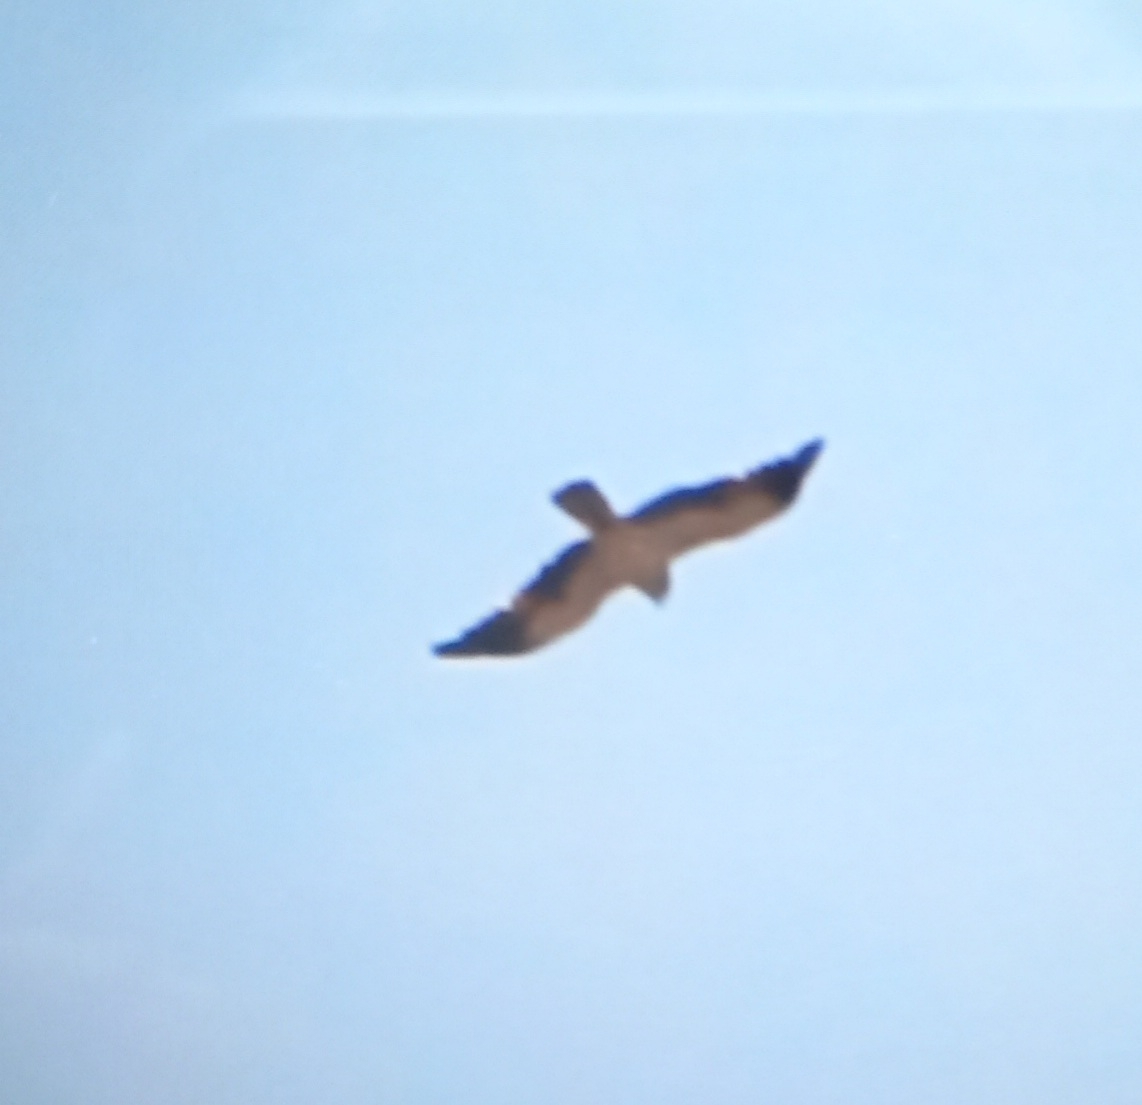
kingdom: Animalia
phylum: Chordata
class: Aves
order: Accipitriformes
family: Accipitridae
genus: Hieraaetus
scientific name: Hieraaetus pennatus
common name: Booted eagle
